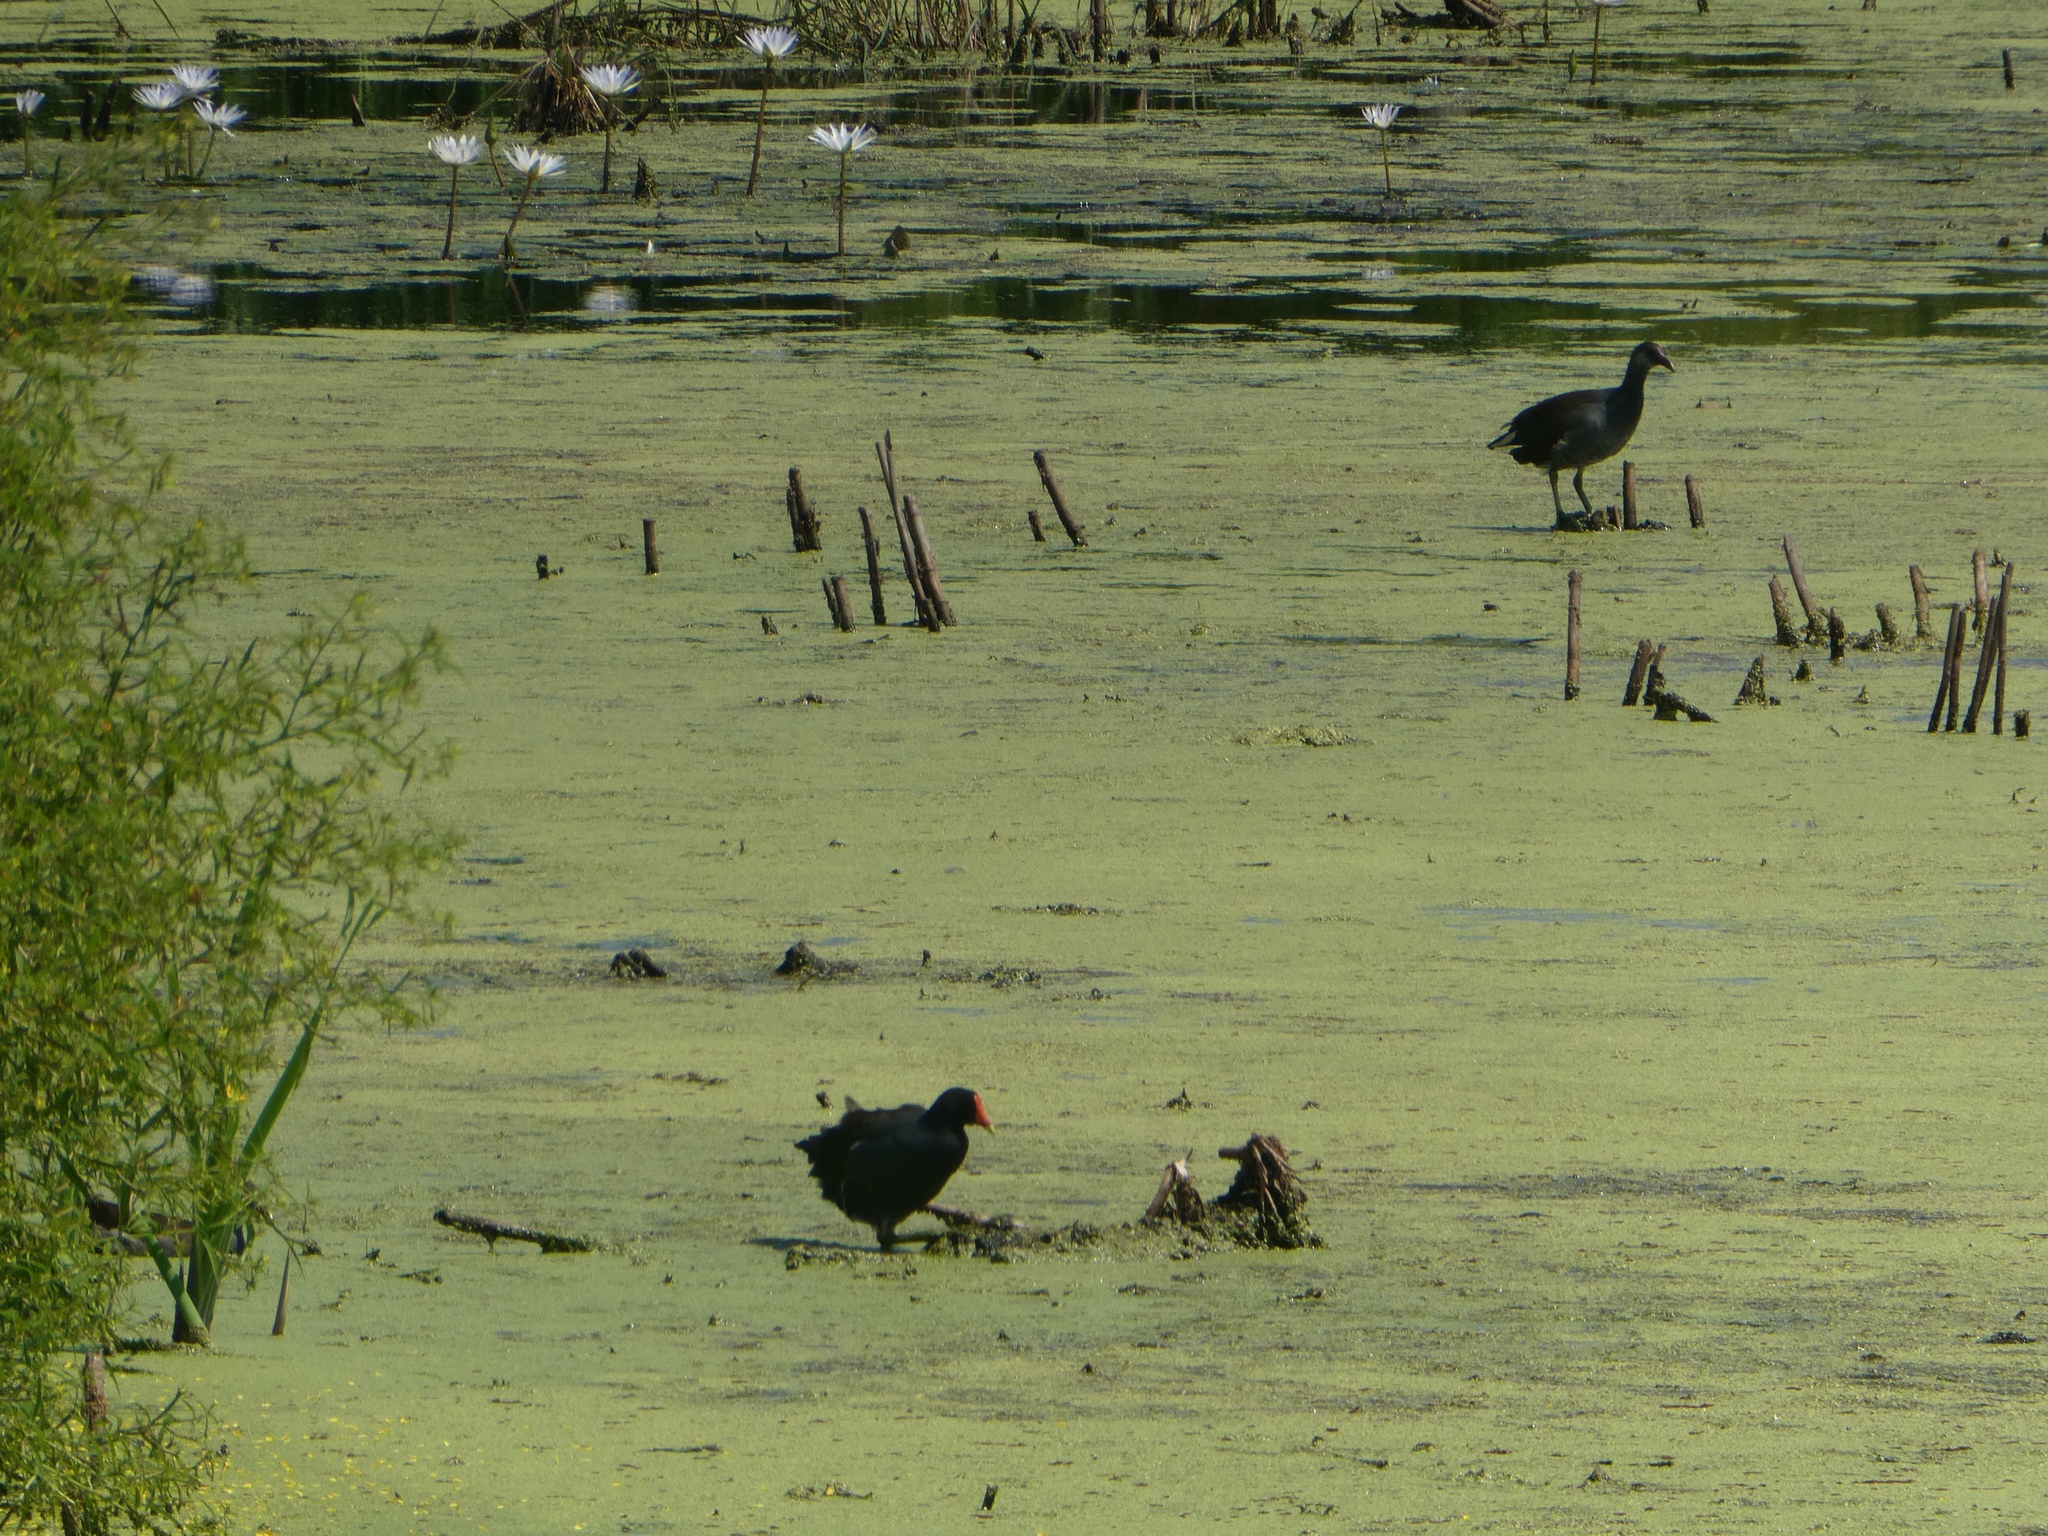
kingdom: Animalia
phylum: Chordata
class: Aves
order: Gruiformes
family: Rallidae
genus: Gallinula
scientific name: Gallinula chloropus
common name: Common moorhen
